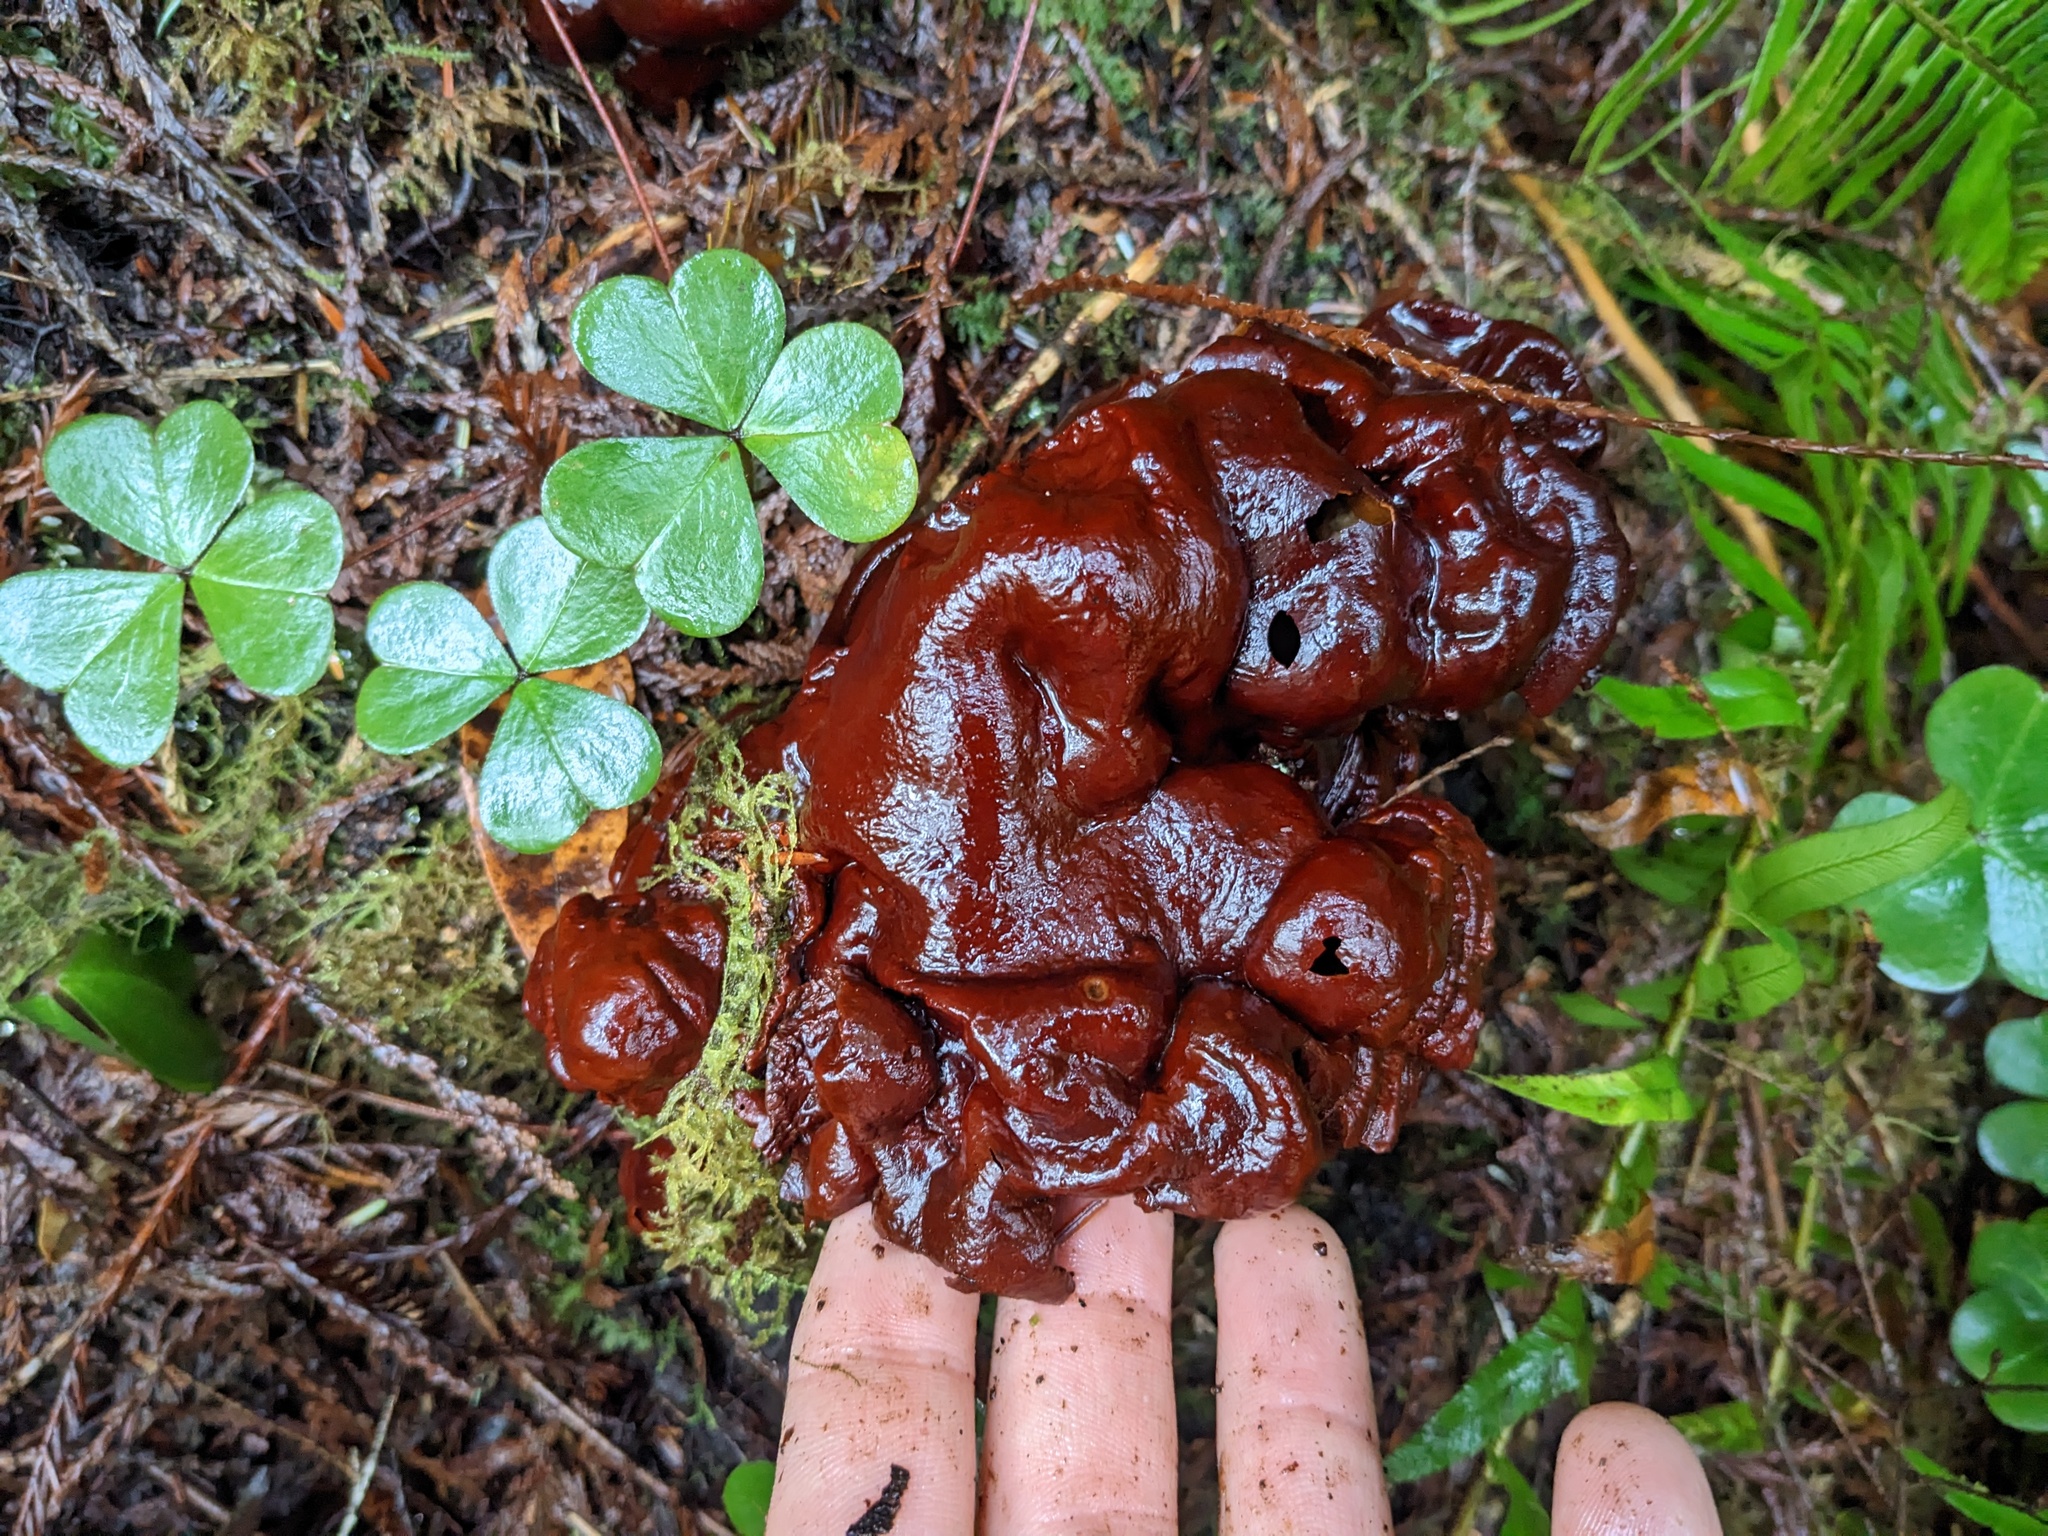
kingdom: Fungi
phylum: Basidiomycota
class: Agaricomycetes
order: Polyporales
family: Polyporaceae
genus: Ganoderma
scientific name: Ganoderma oregonense
